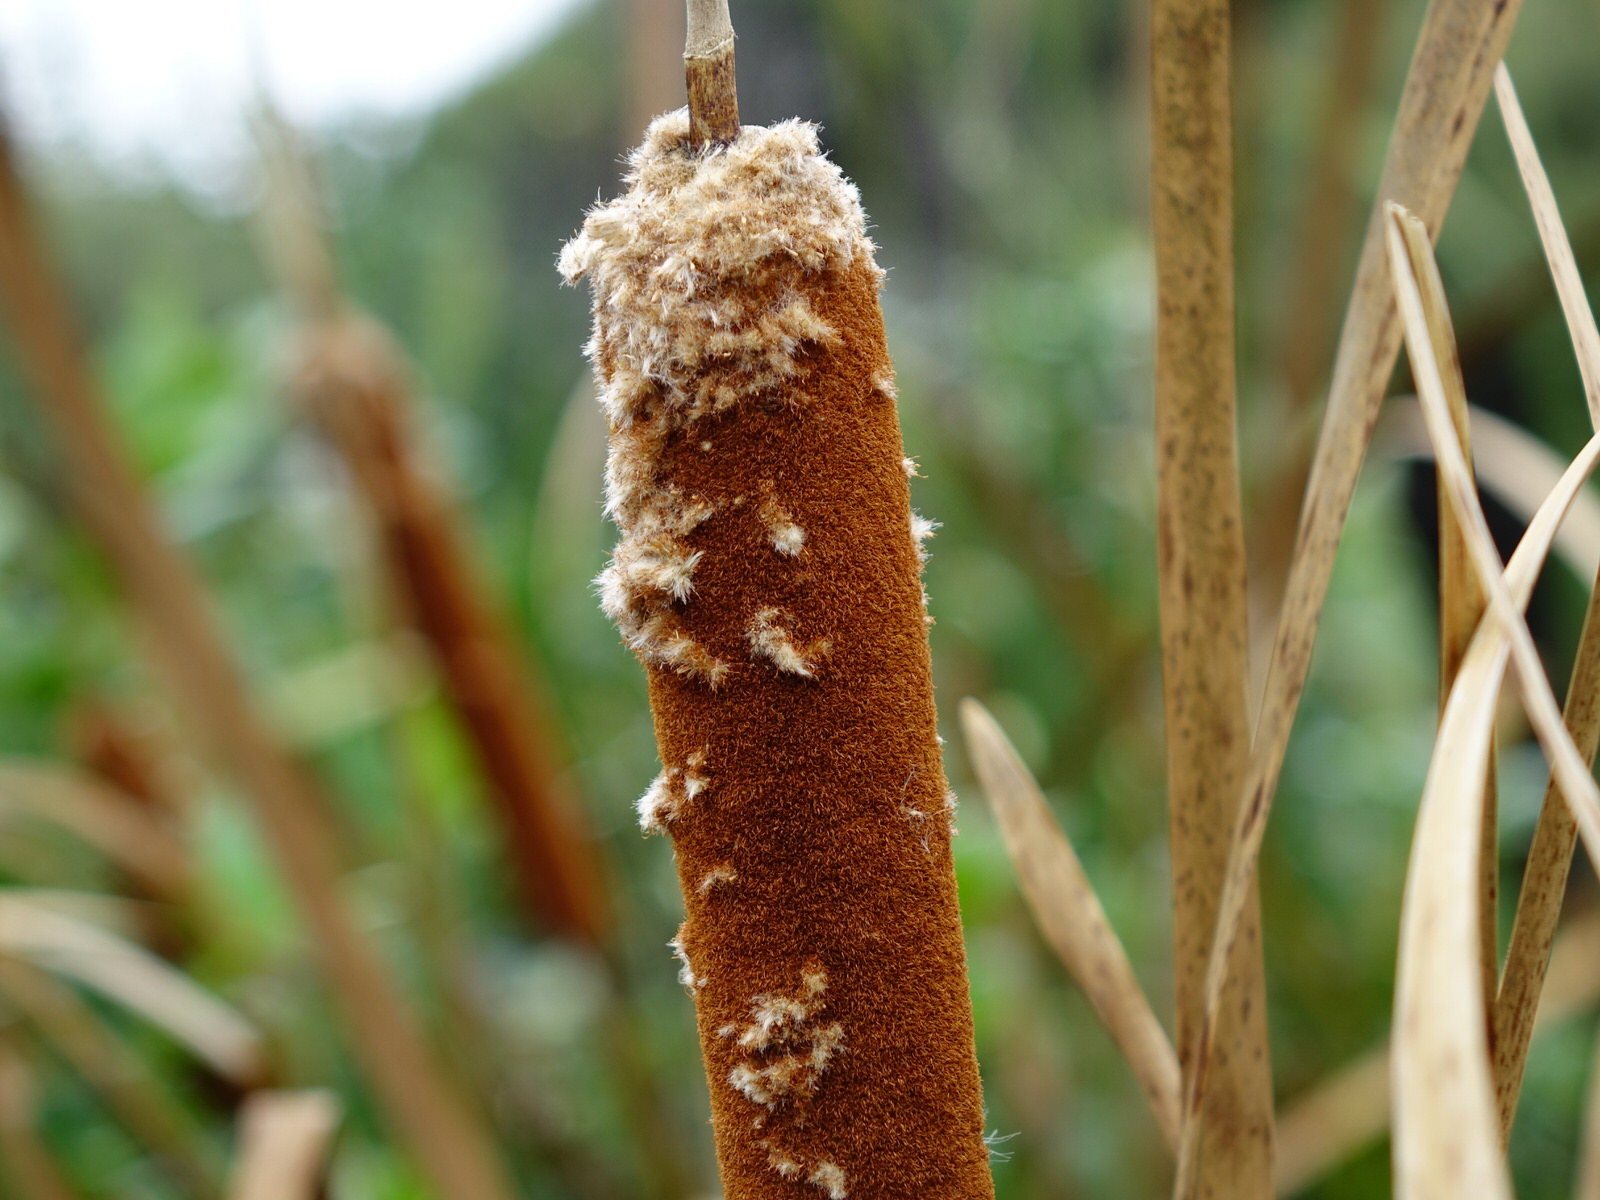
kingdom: Plantae
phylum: Tracheophyta
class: Liliopsida
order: Poales
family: Typhaceae
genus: Typha
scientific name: Typha orientalis
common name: Bullrush
